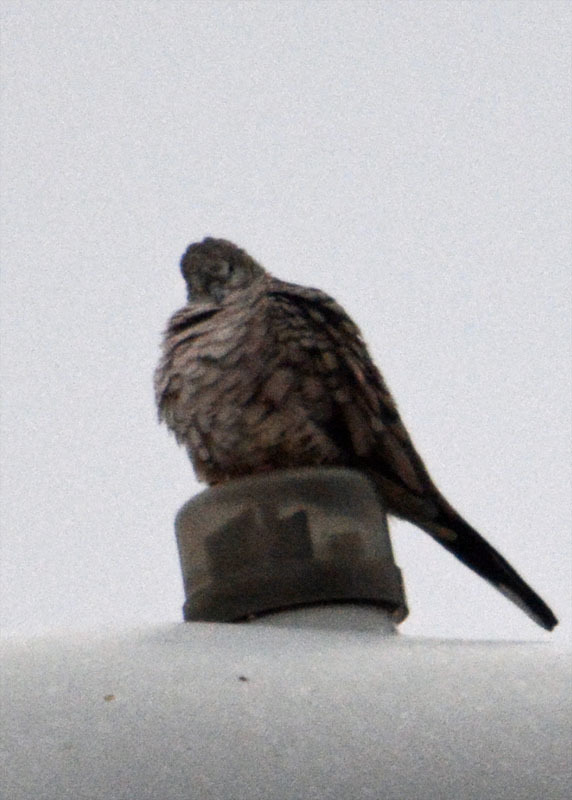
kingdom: Animalia
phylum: Chordata
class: Aves
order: Columbiformes
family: Columbidae
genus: Columbina
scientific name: Columbina inca
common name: Inca dove
